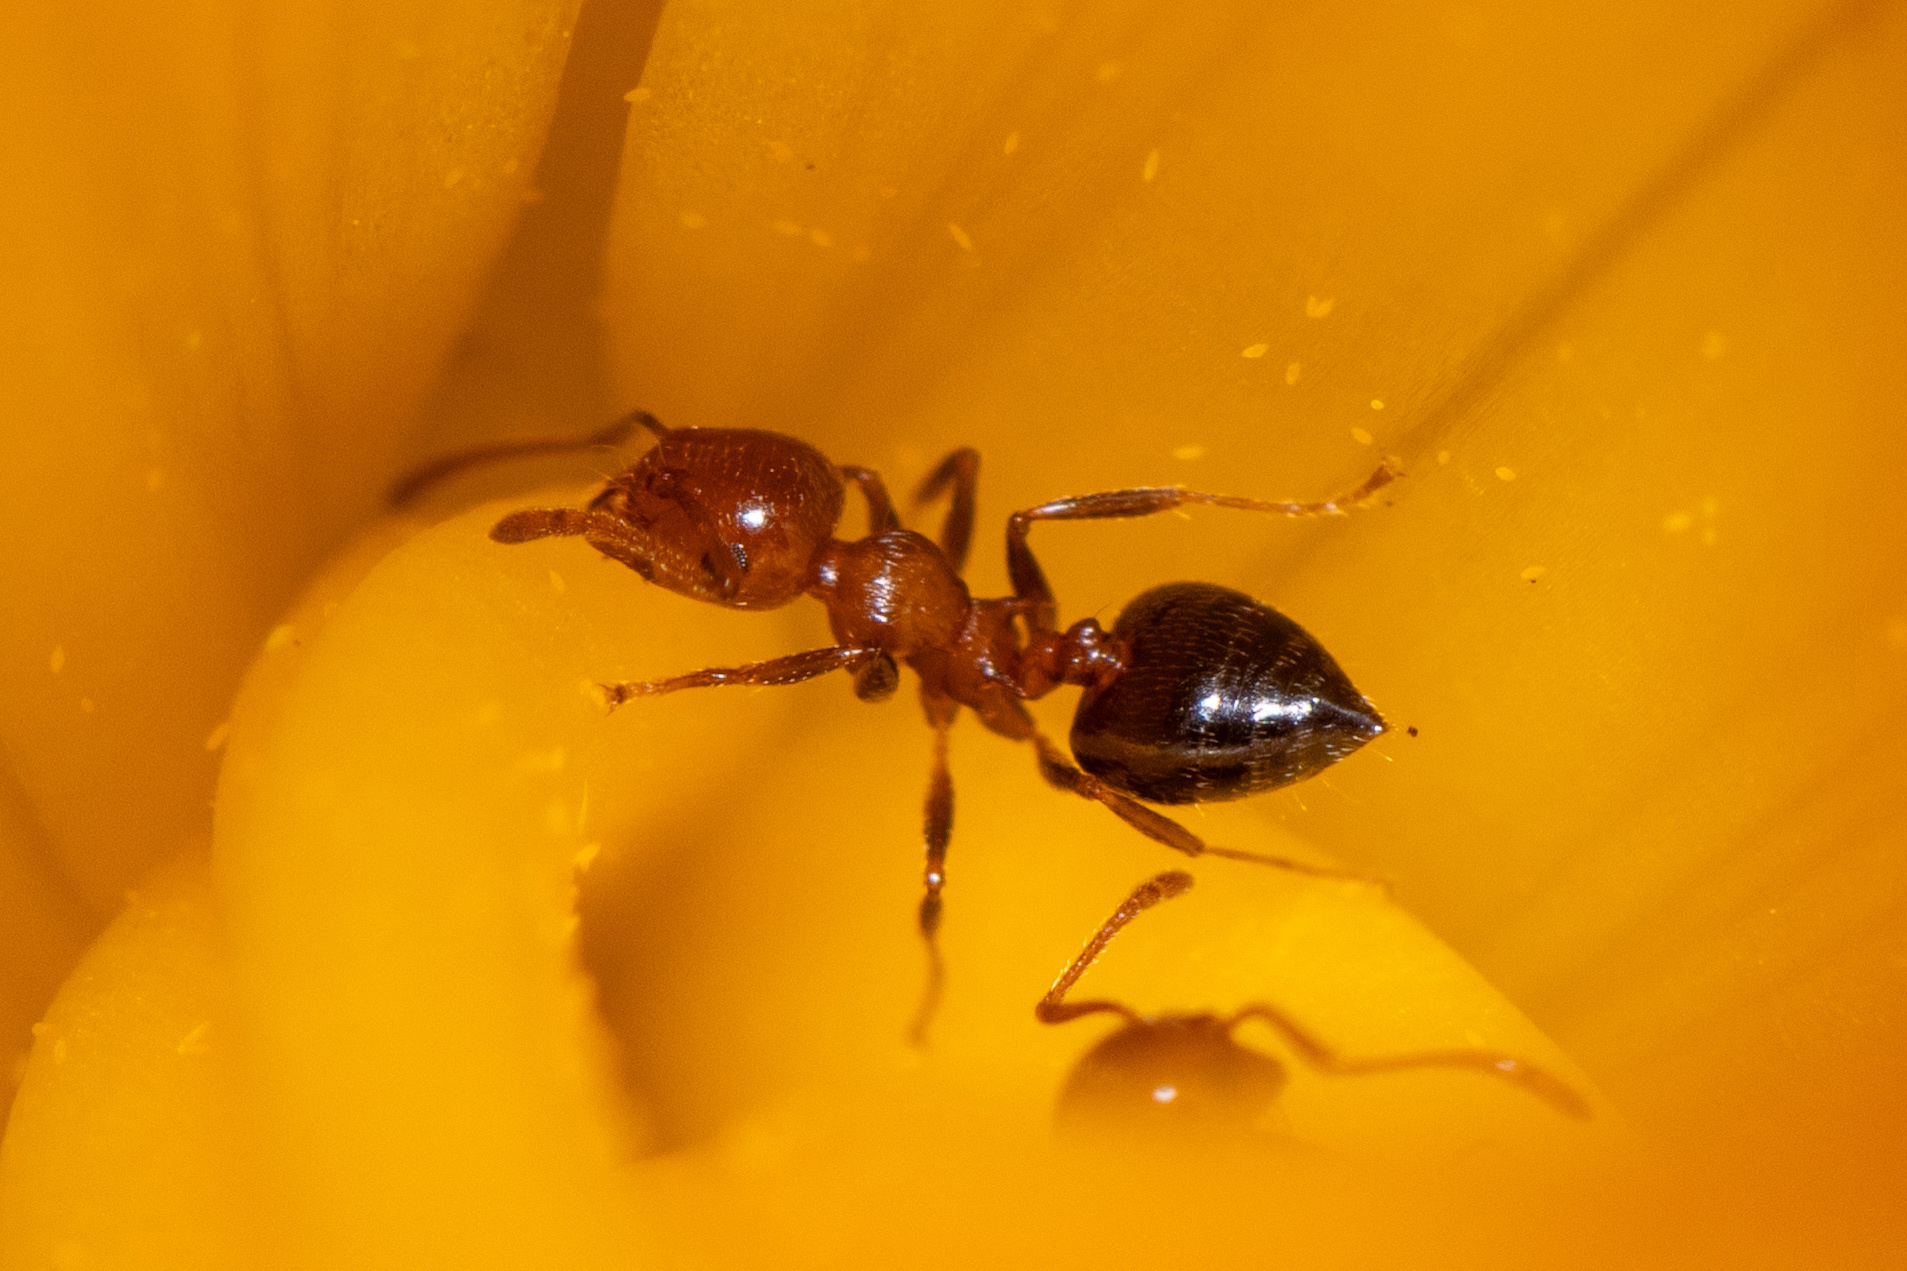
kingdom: Animalia
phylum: Arthropoda
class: Insecta
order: Hymenoptera
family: Formicidae
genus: Crematogaster
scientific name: Crematogaster laeviuscula
